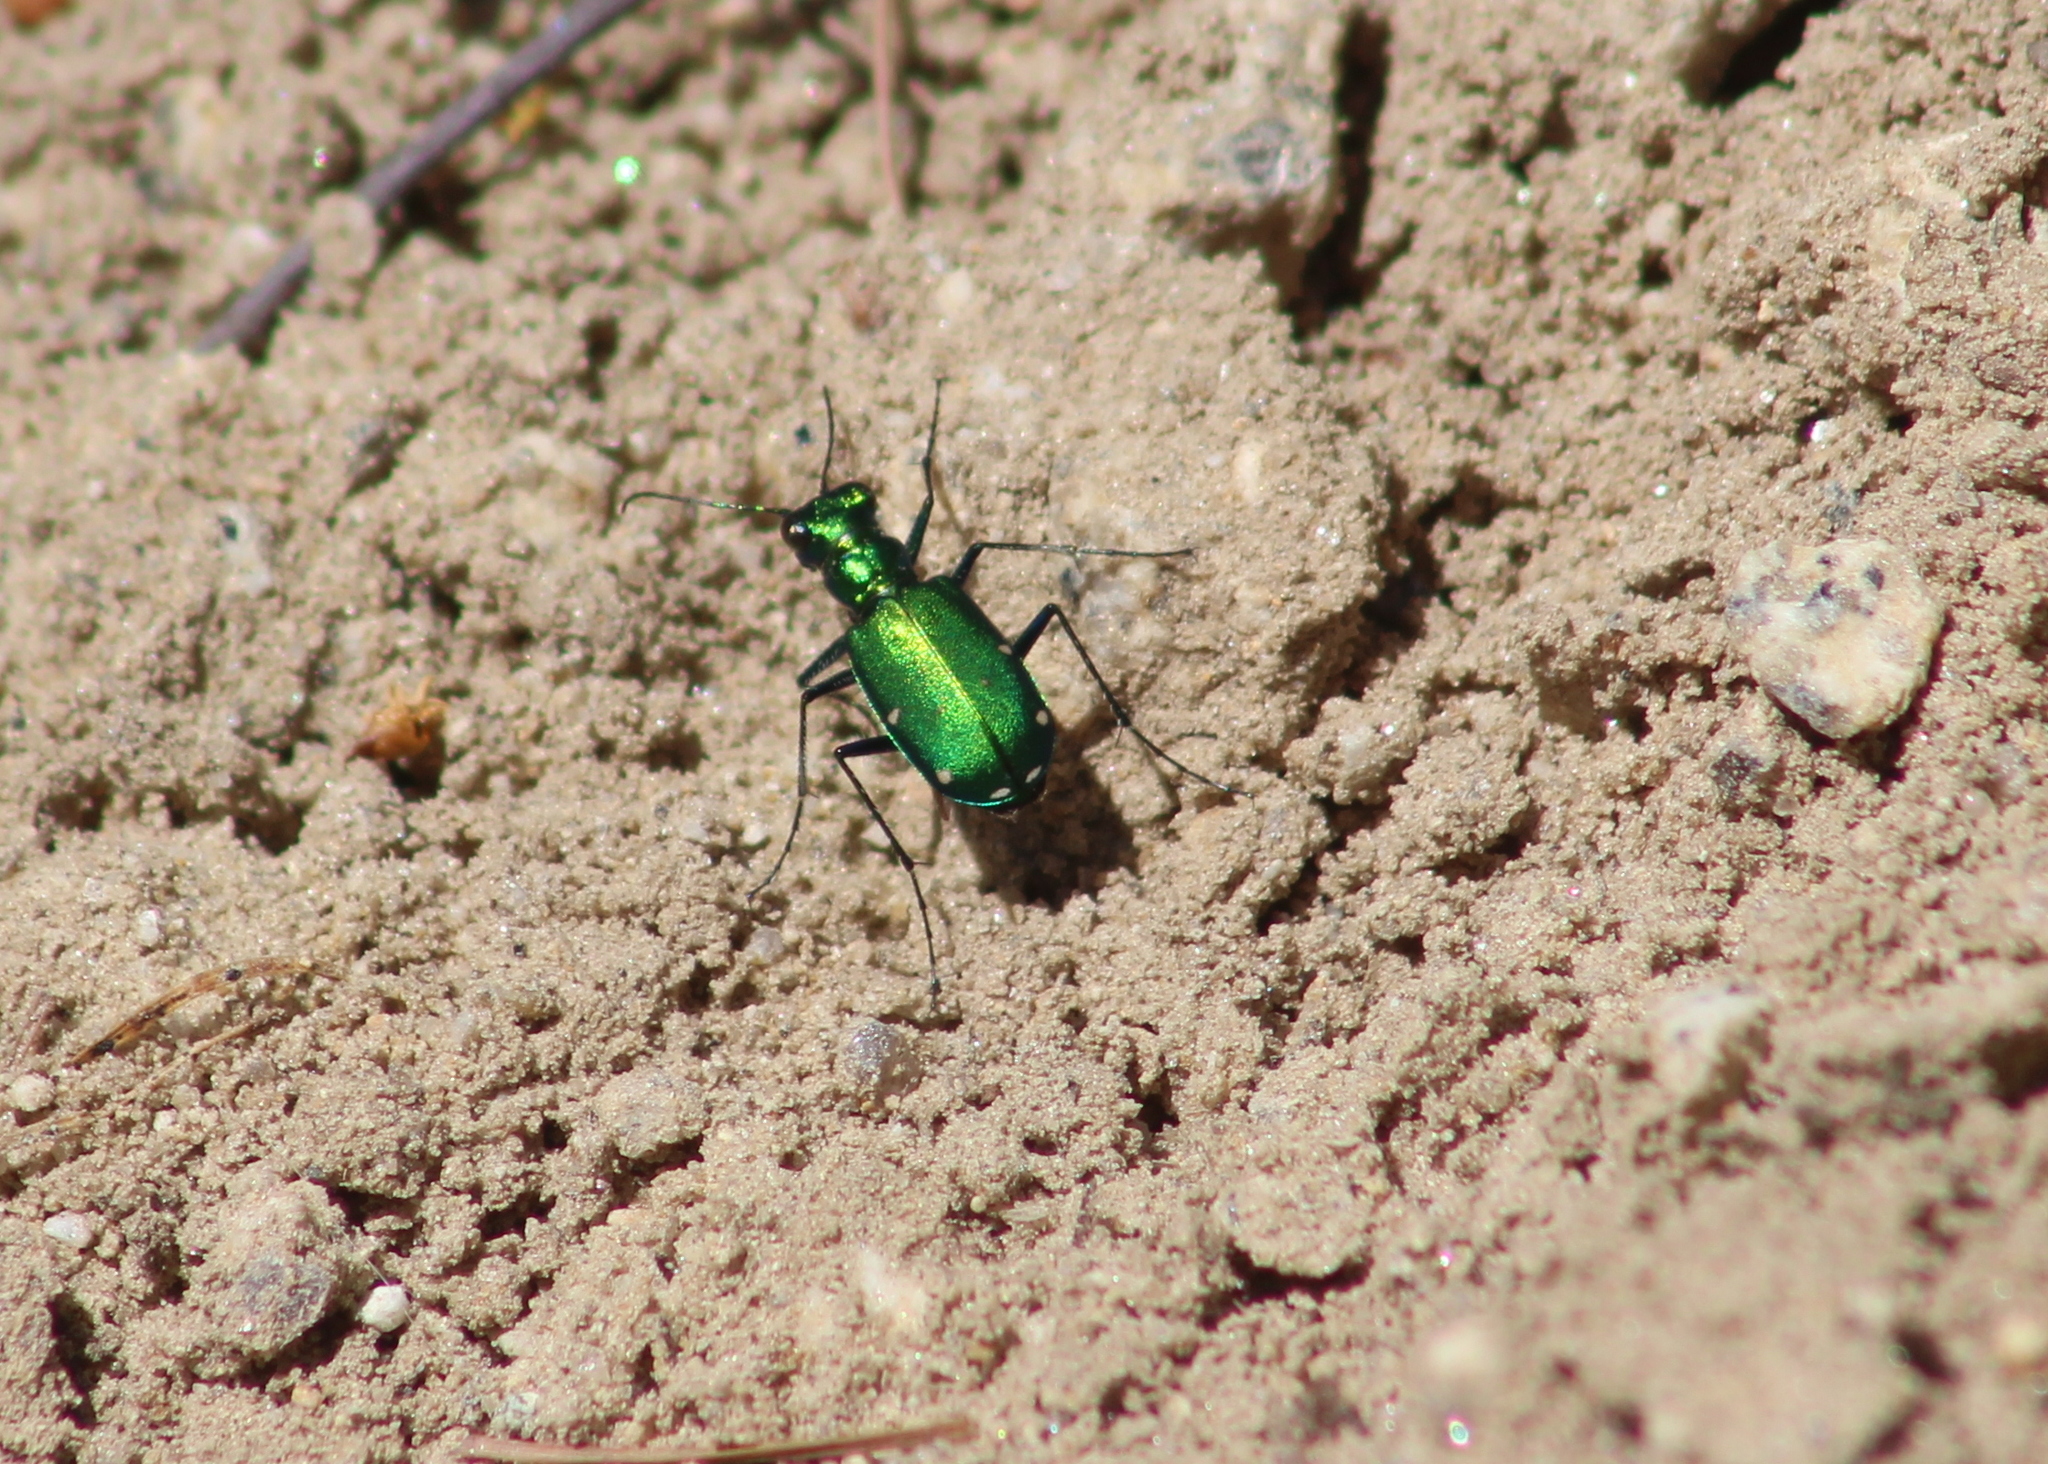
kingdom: Animalia
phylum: Arthropoda
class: Insecta
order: Coleoptera
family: Carabidae
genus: Cicindela
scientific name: Cicindela sexguttata
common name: Six-spotted tiger beetle
